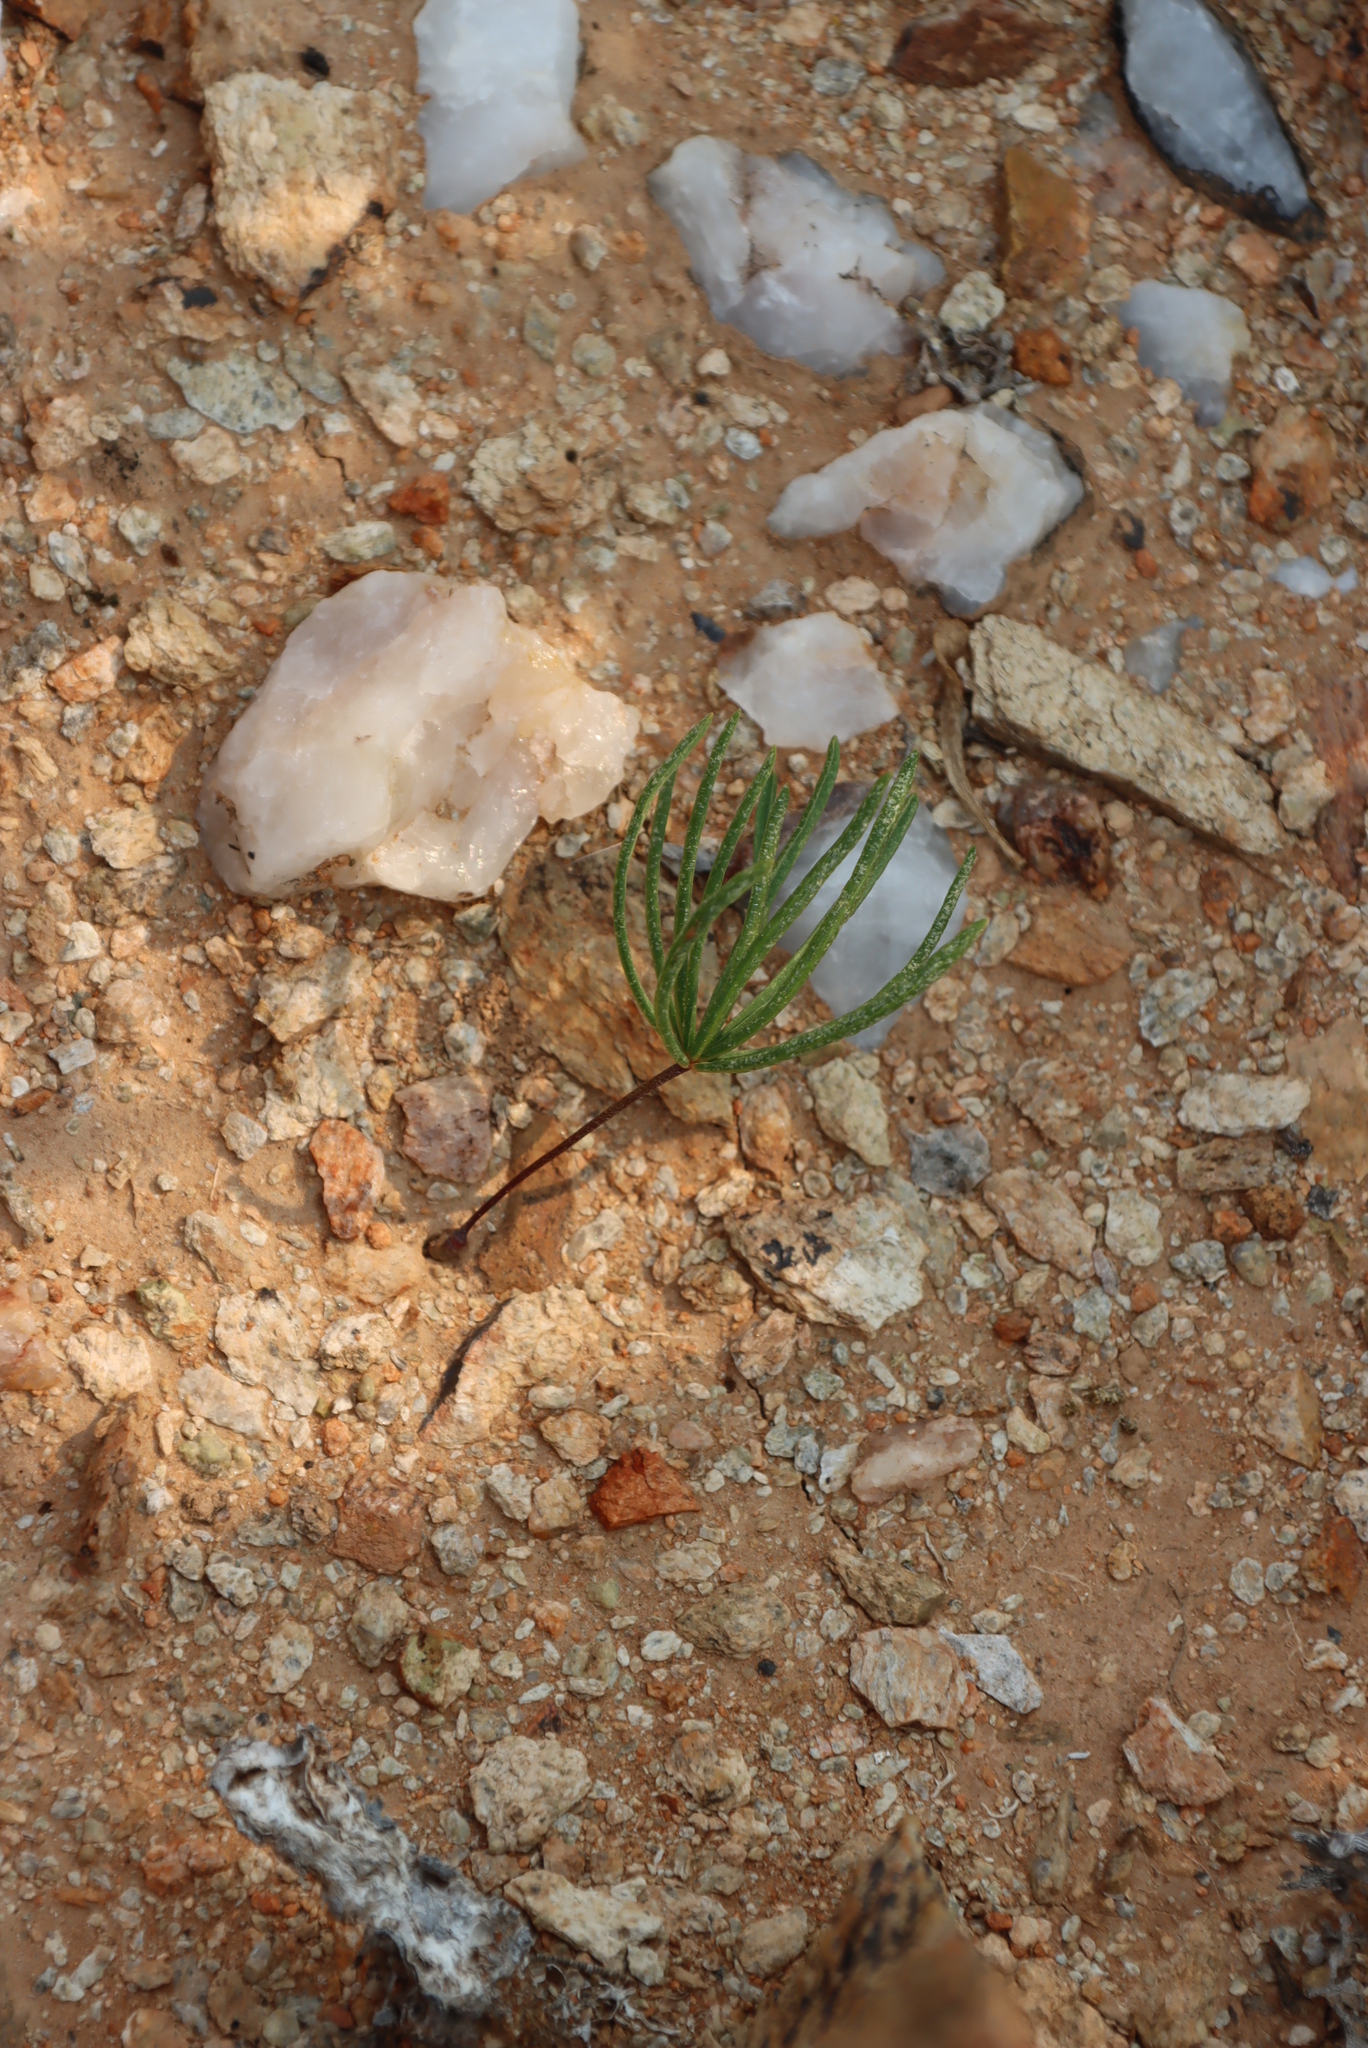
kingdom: Plantae
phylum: Tracheophyta
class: Magnoliopsida
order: Oxalidales
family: Oxalidaceae
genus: Oxalis
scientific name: Oxalis canaliculata
